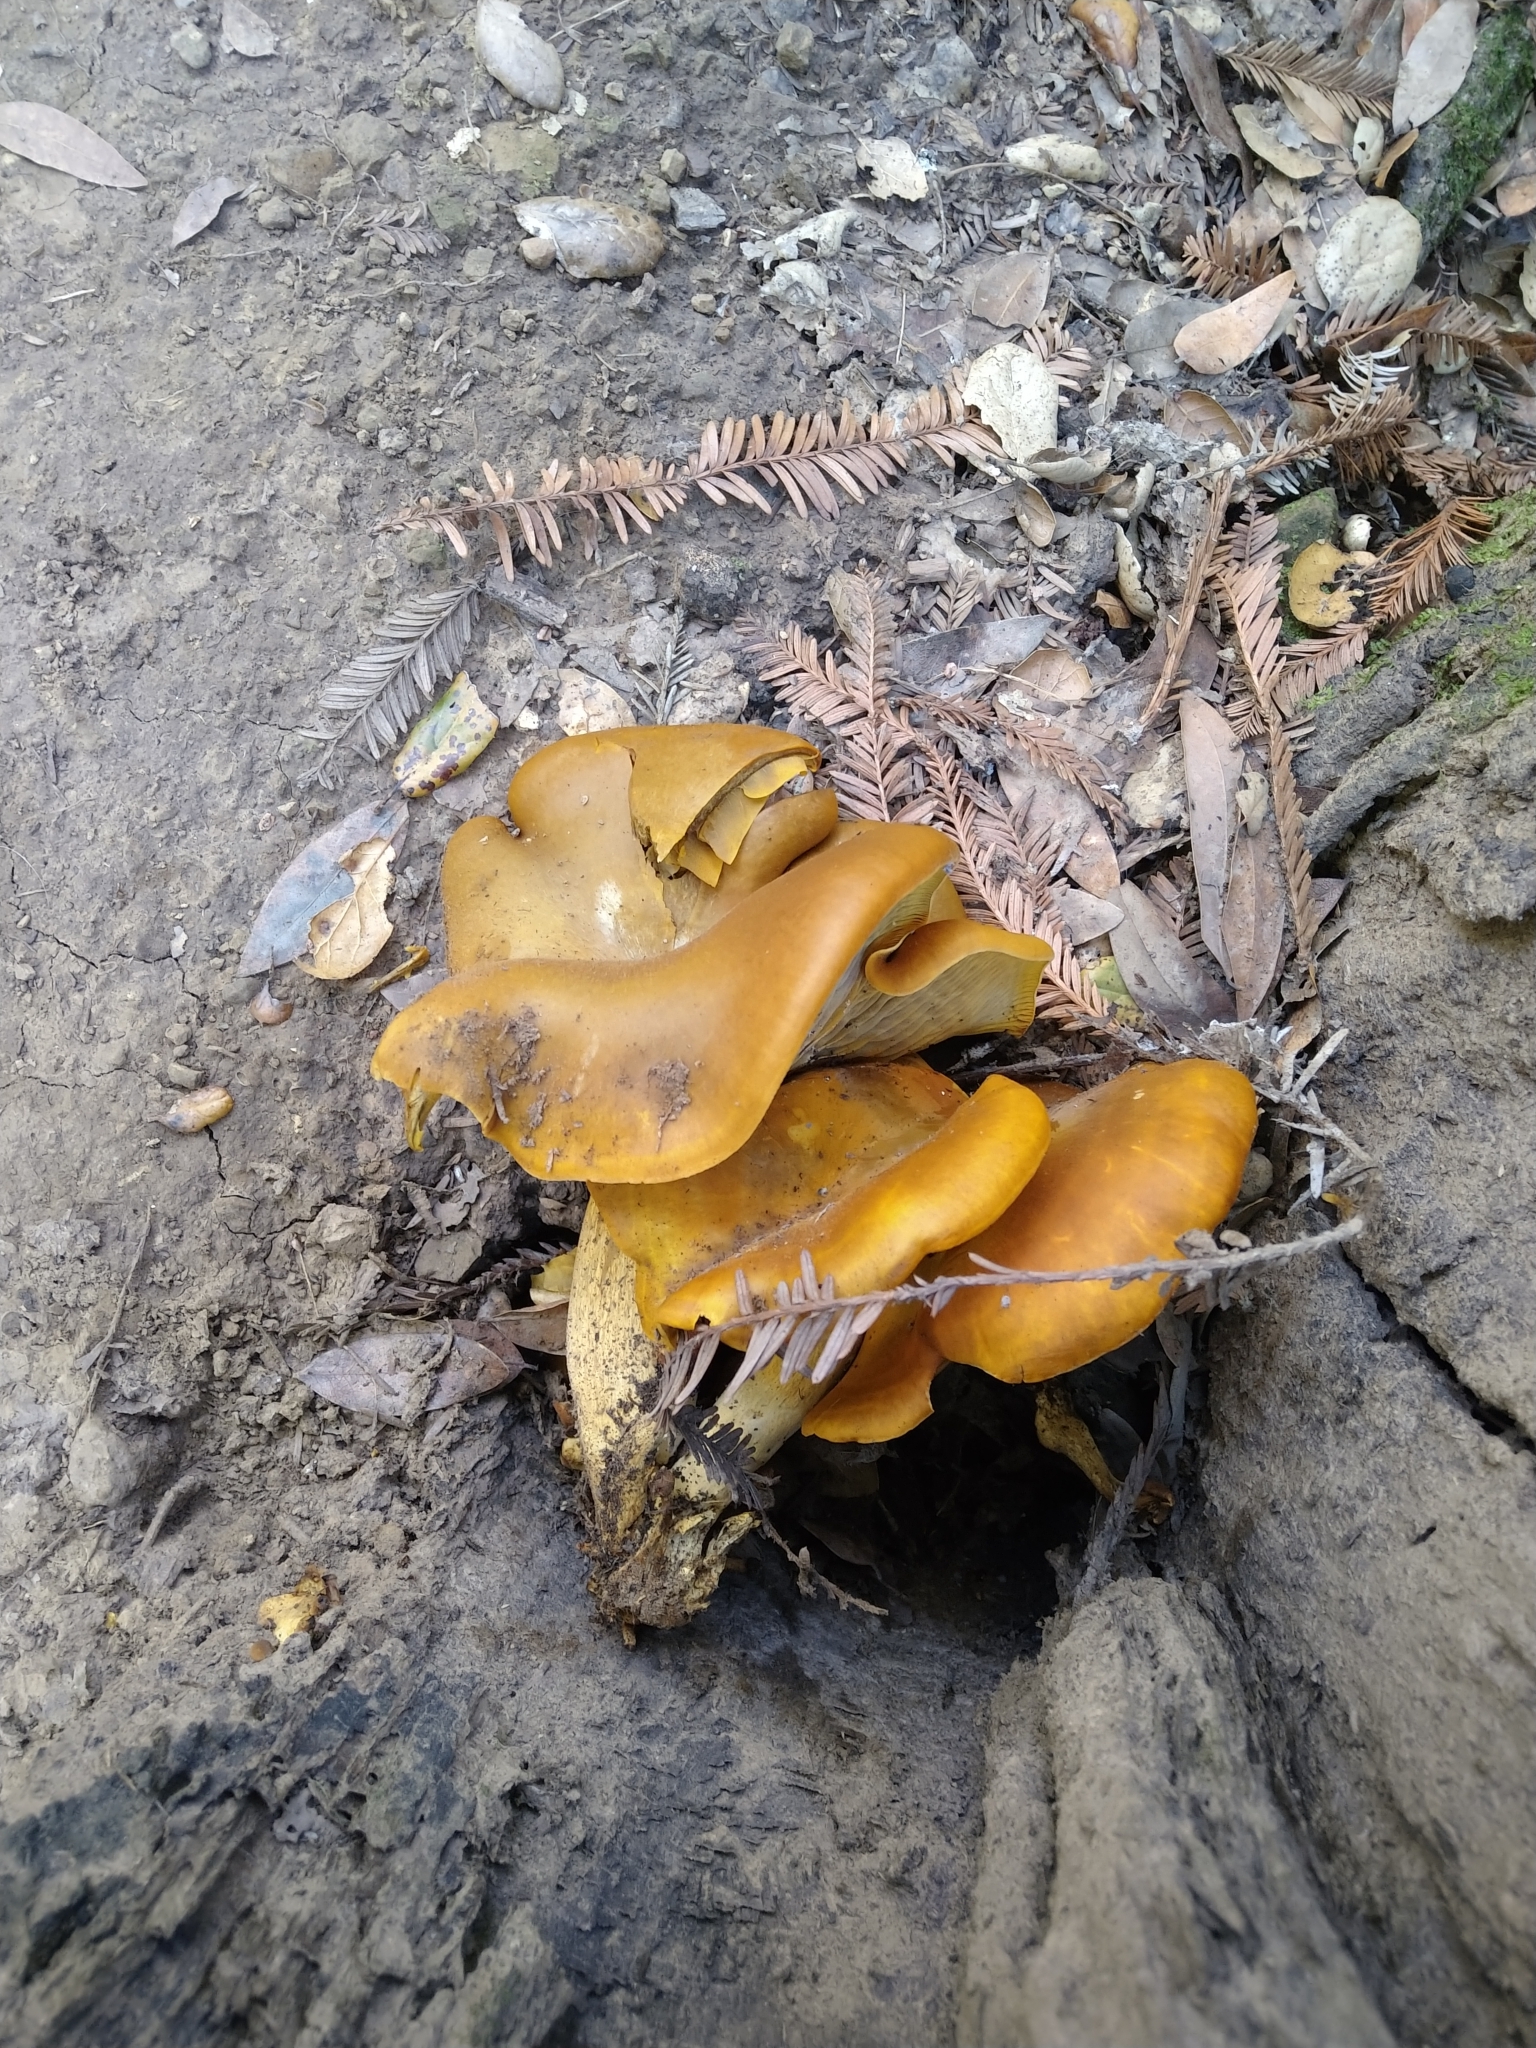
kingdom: Fungi
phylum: Basidiomycota
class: Agaricomycetes
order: Agaricales
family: Omphalotaceae
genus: Omphalotus
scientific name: Omphalotus olivascens
